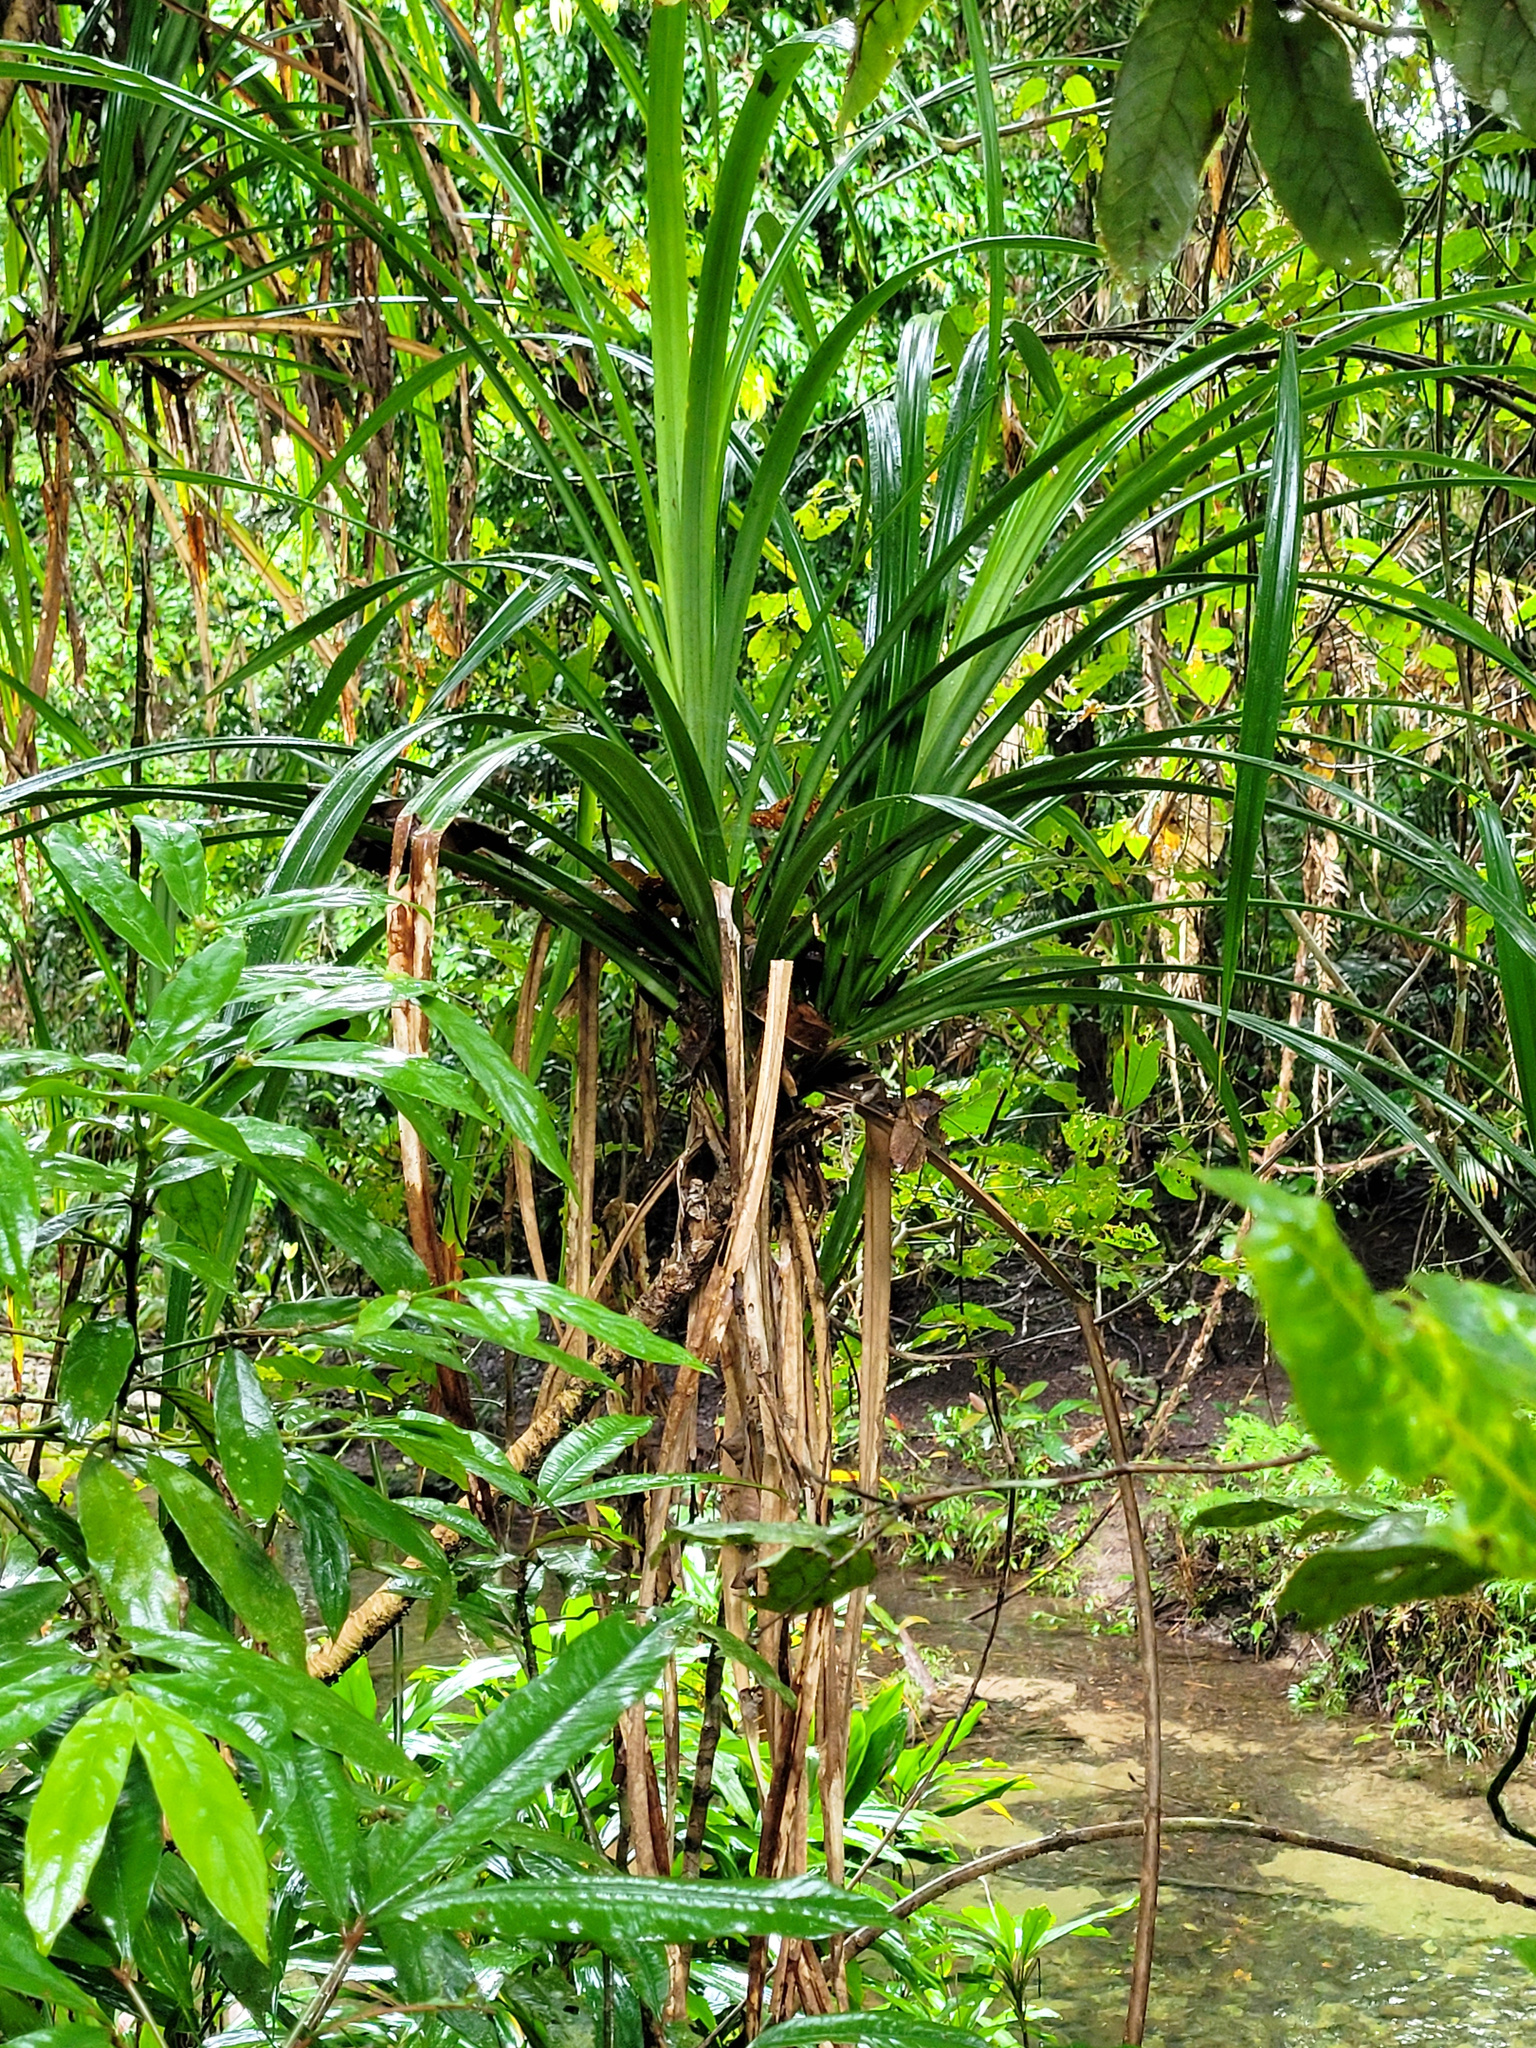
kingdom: Plantae
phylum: Tracheophyta
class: Liliopsida
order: Pandanales
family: Pandanaceae
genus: Benstonea
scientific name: Benstonea monticola
